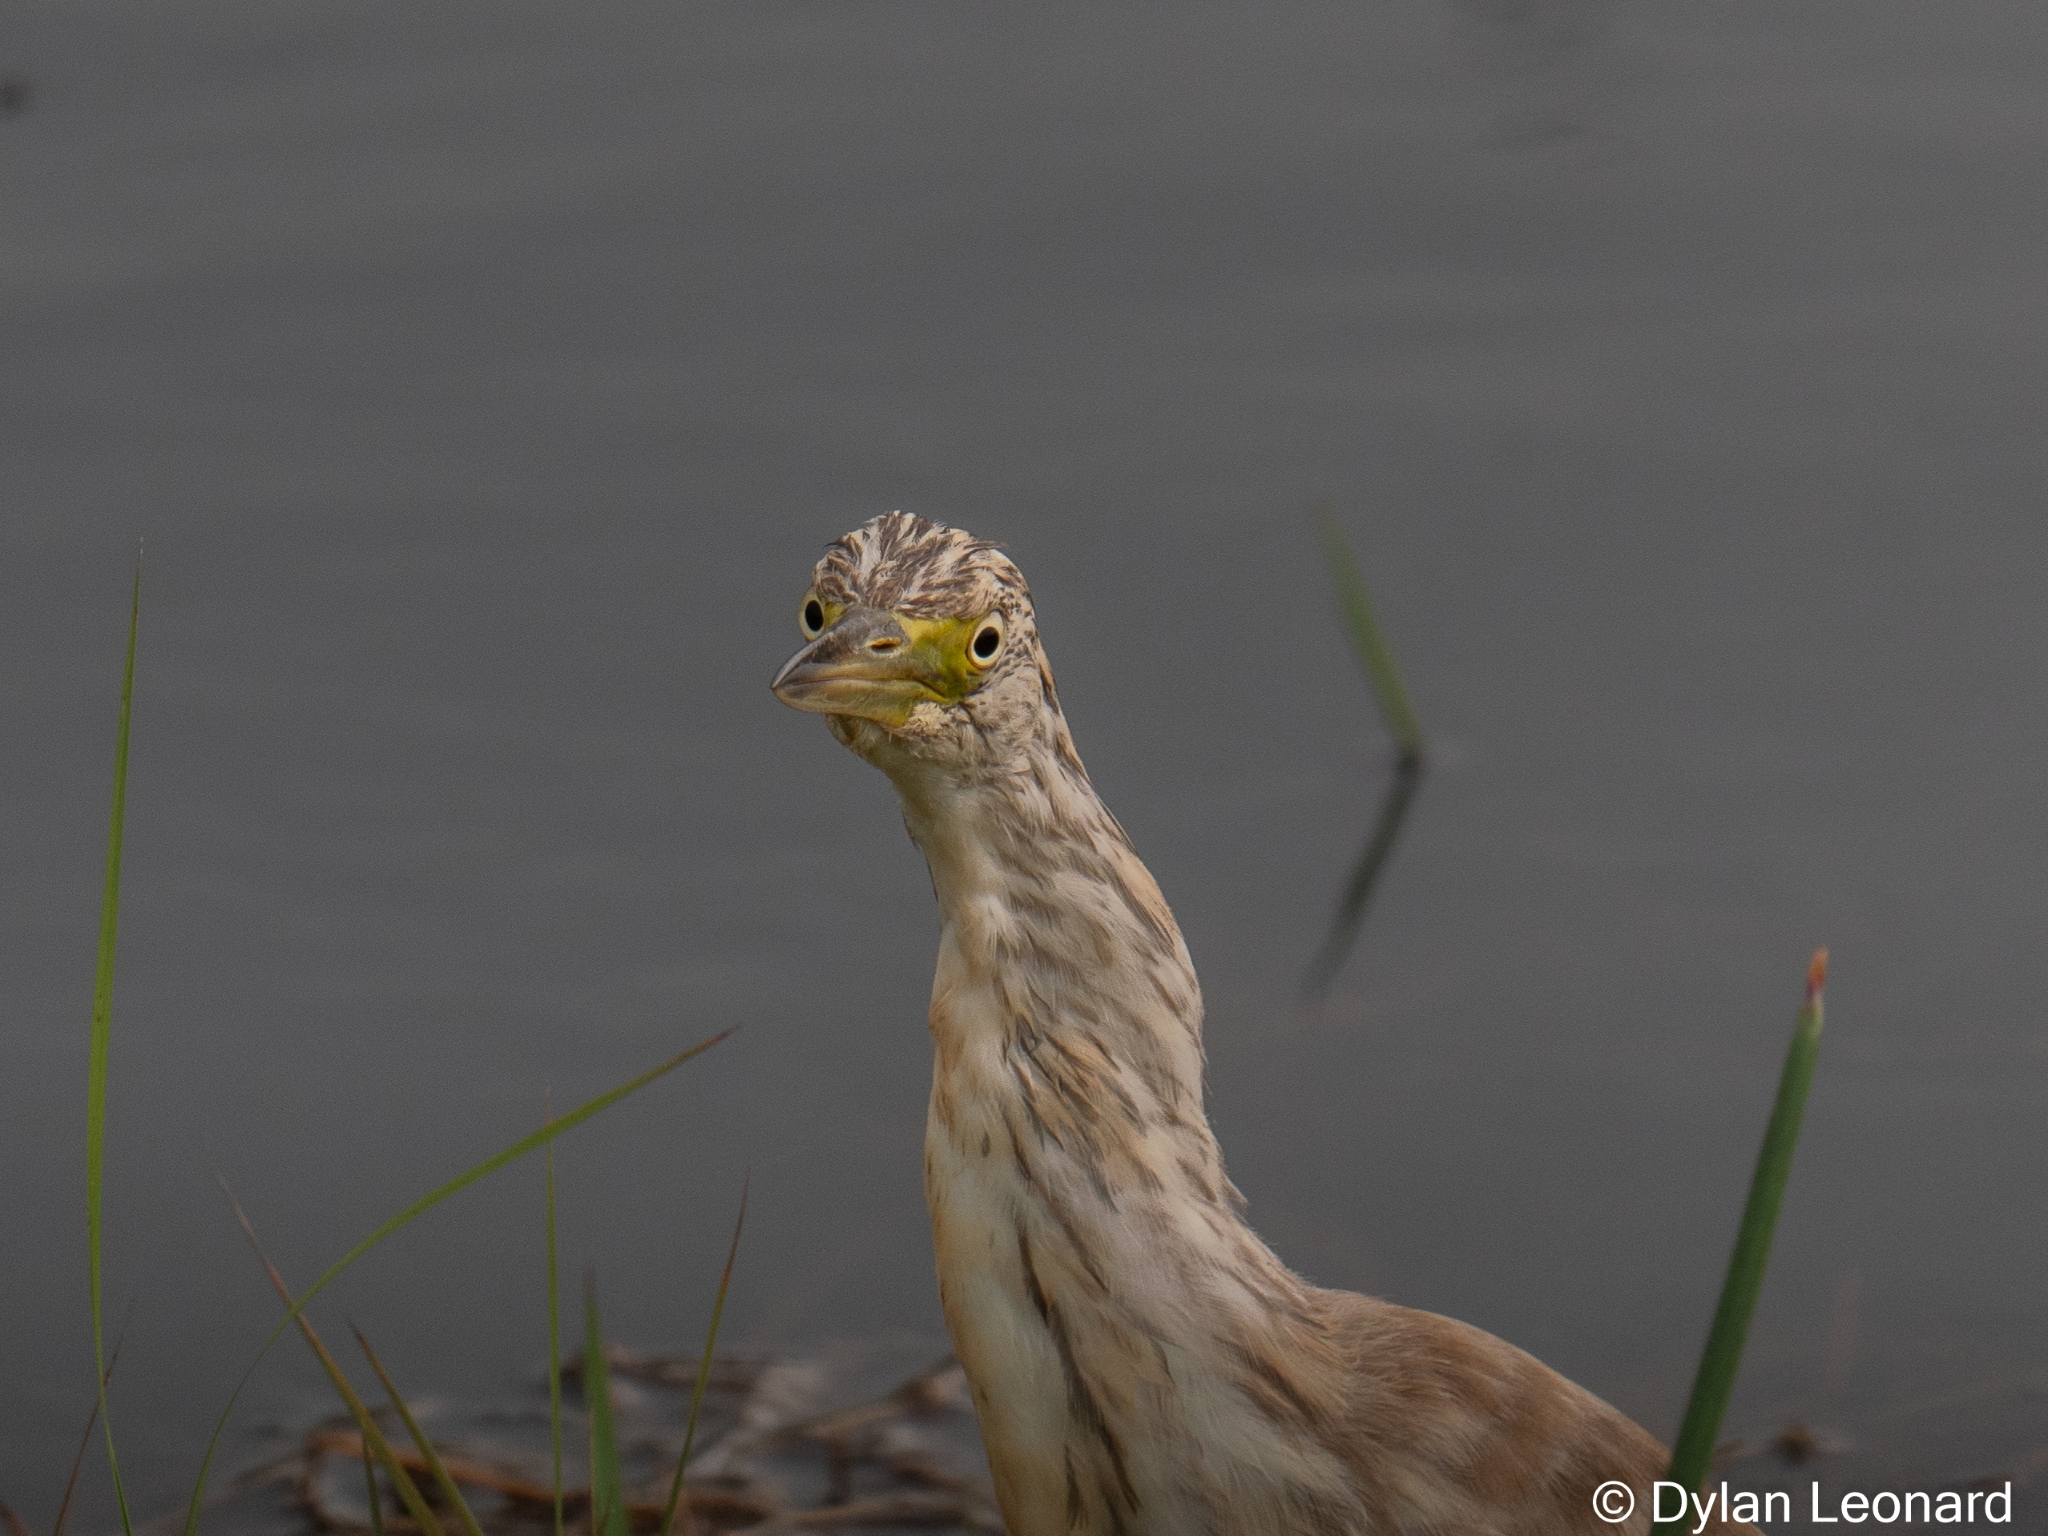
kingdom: Animalia
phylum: Chordata
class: Aves
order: Pelecaniformes
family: Ardeidae
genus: Ardeola
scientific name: Ardeola ralloides
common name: Squacco heron
